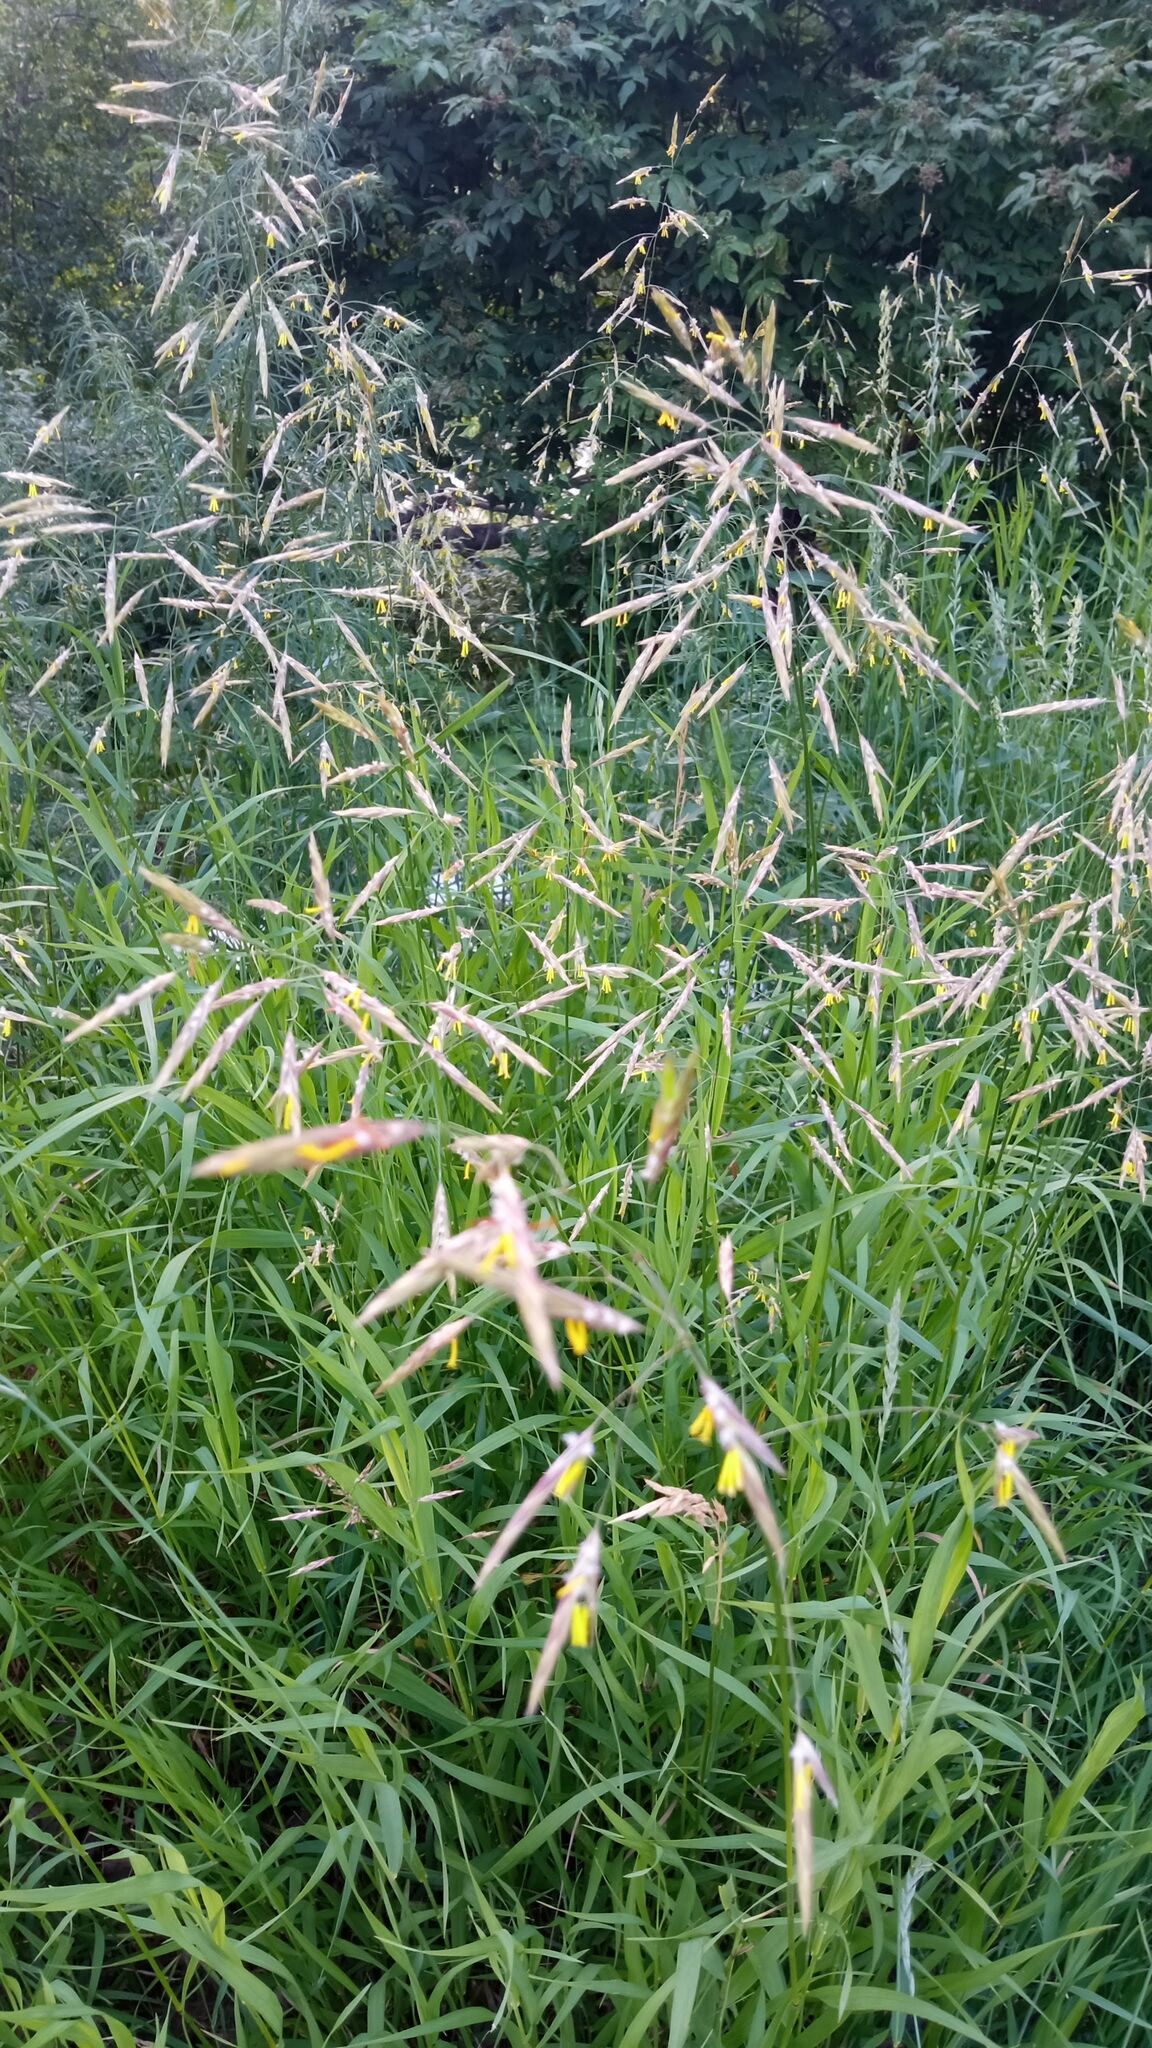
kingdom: Plantae
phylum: Tracheophyta
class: Liliopsida
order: Poales
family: Poaceae
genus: Bromus
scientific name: Bromus inermis
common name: Smooth brome
